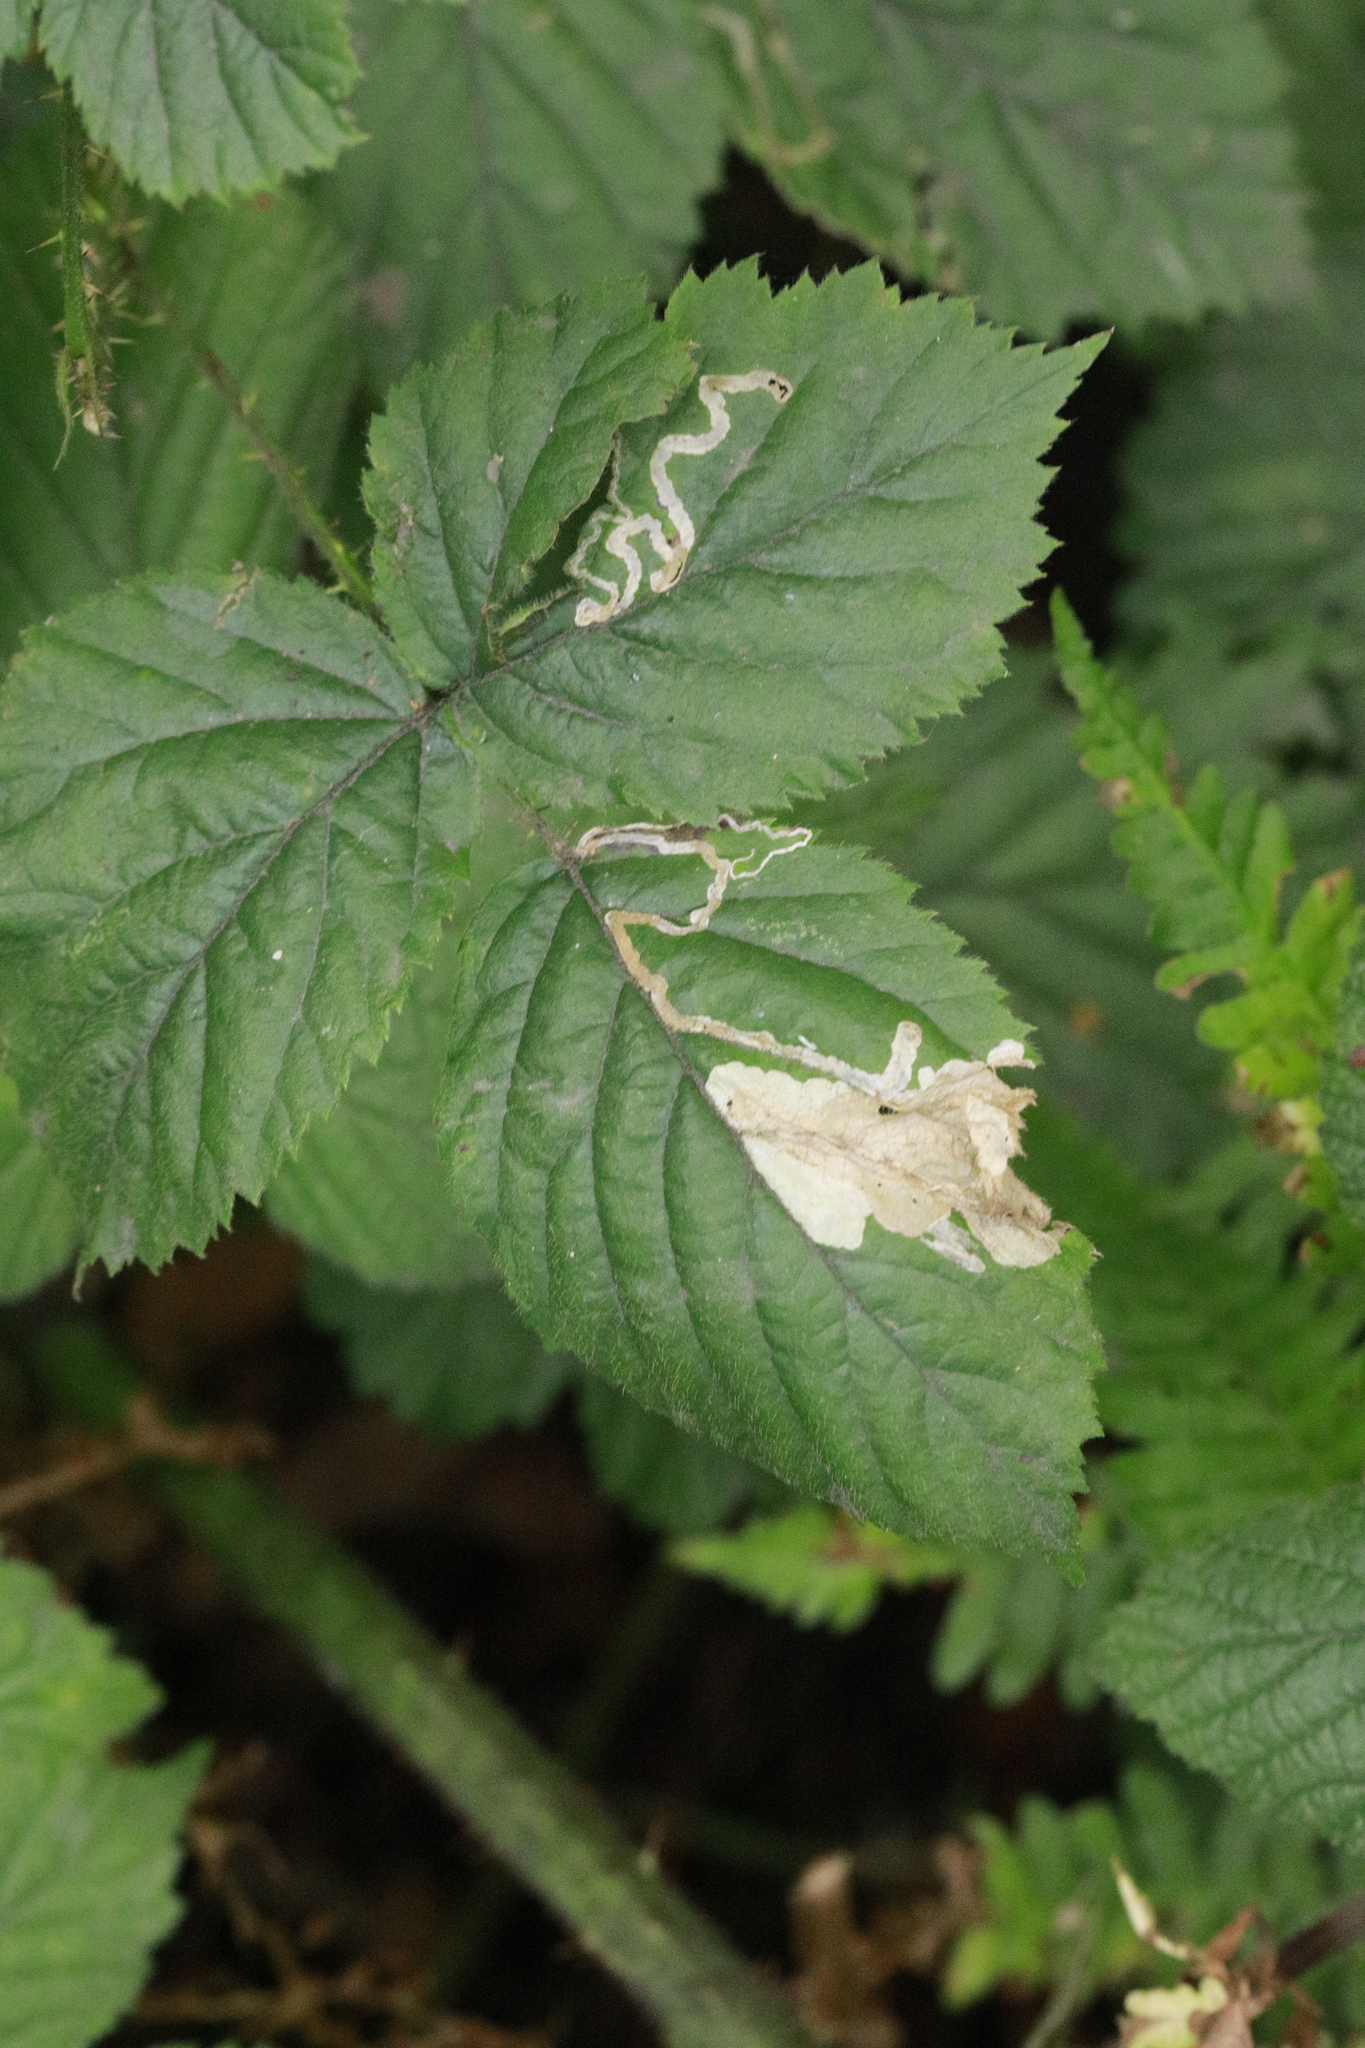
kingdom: Animalia
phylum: Arthropoda
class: Insecta
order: Lepidoptera
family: Tischeriidae
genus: Coptotriche
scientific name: Coptotriche marginea
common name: Bordered carl
